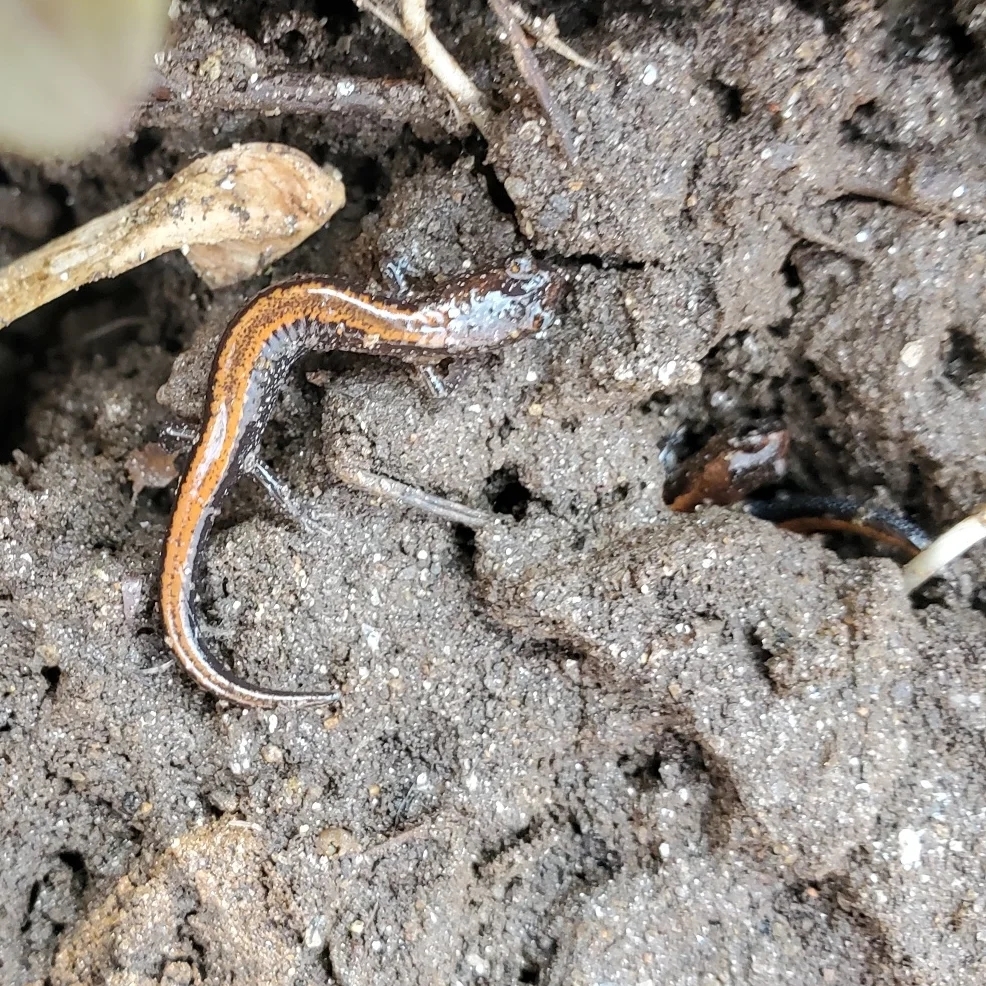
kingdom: Animalia
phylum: Chordata
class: Amphibia
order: Caudata
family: Plethodontidae
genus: Plethodon
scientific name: Plethodon cinereus
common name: Redback salamander
